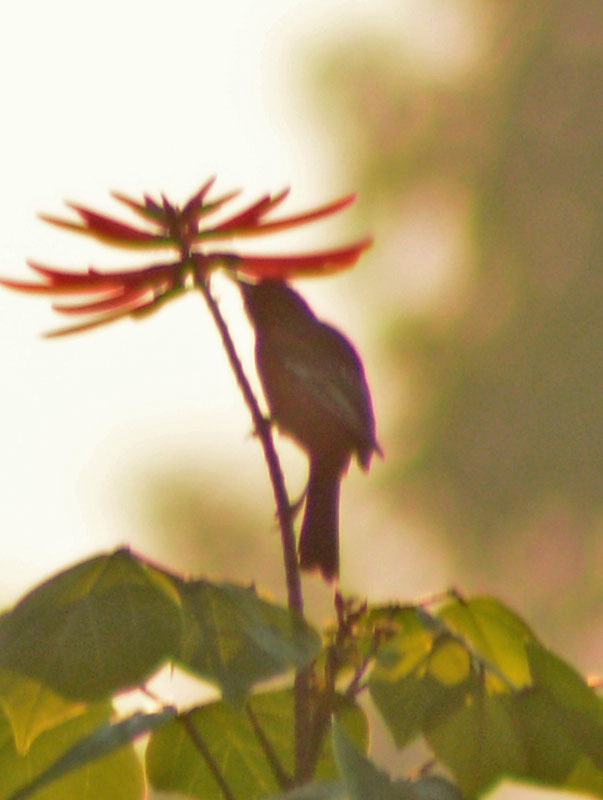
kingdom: Animalia
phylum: Chordata
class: Aves
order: Passeriformes
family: Icteridae
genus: Icterus
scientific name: Icterus spurius
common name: Orchard oriole
